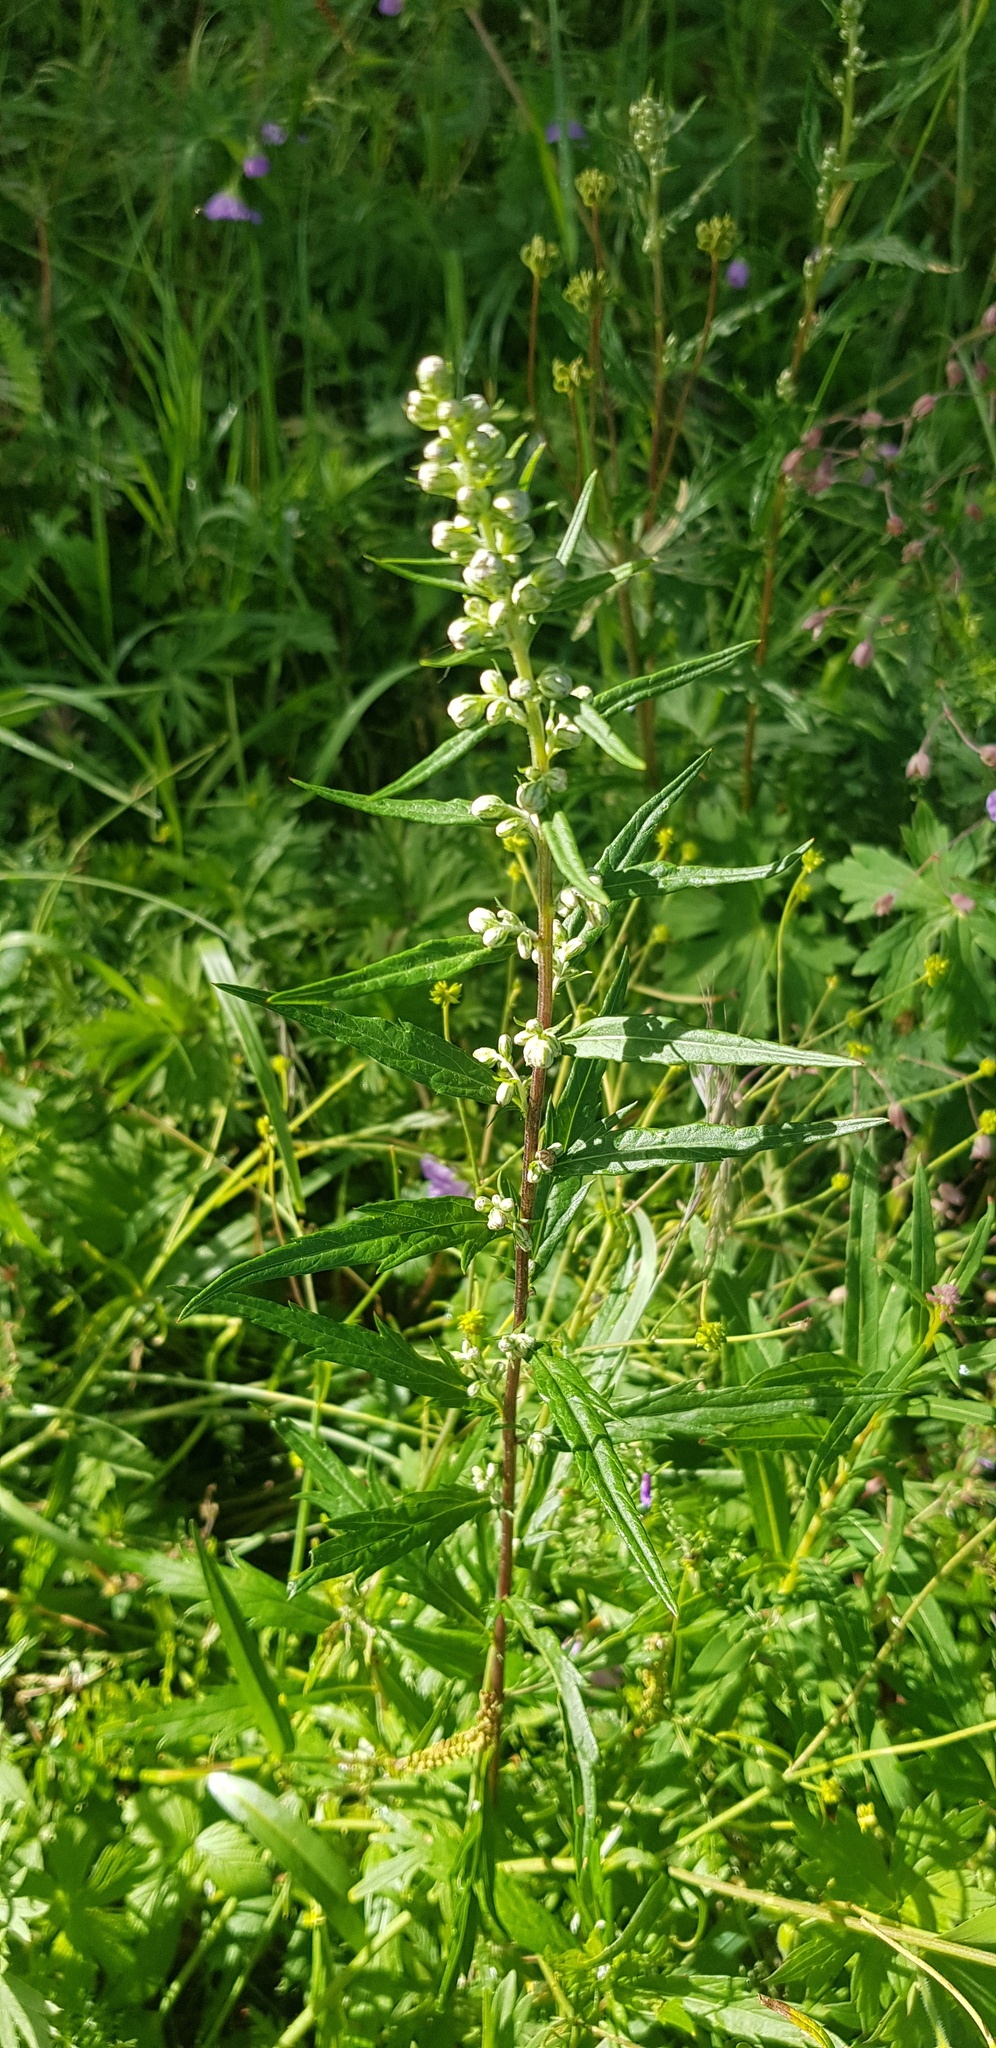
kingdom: Plantae
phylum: Tracheophyta
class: Magnoliopsida
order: Asterales
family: Asteraceae
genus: Artemisia
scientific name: Artemisia integrifolia
